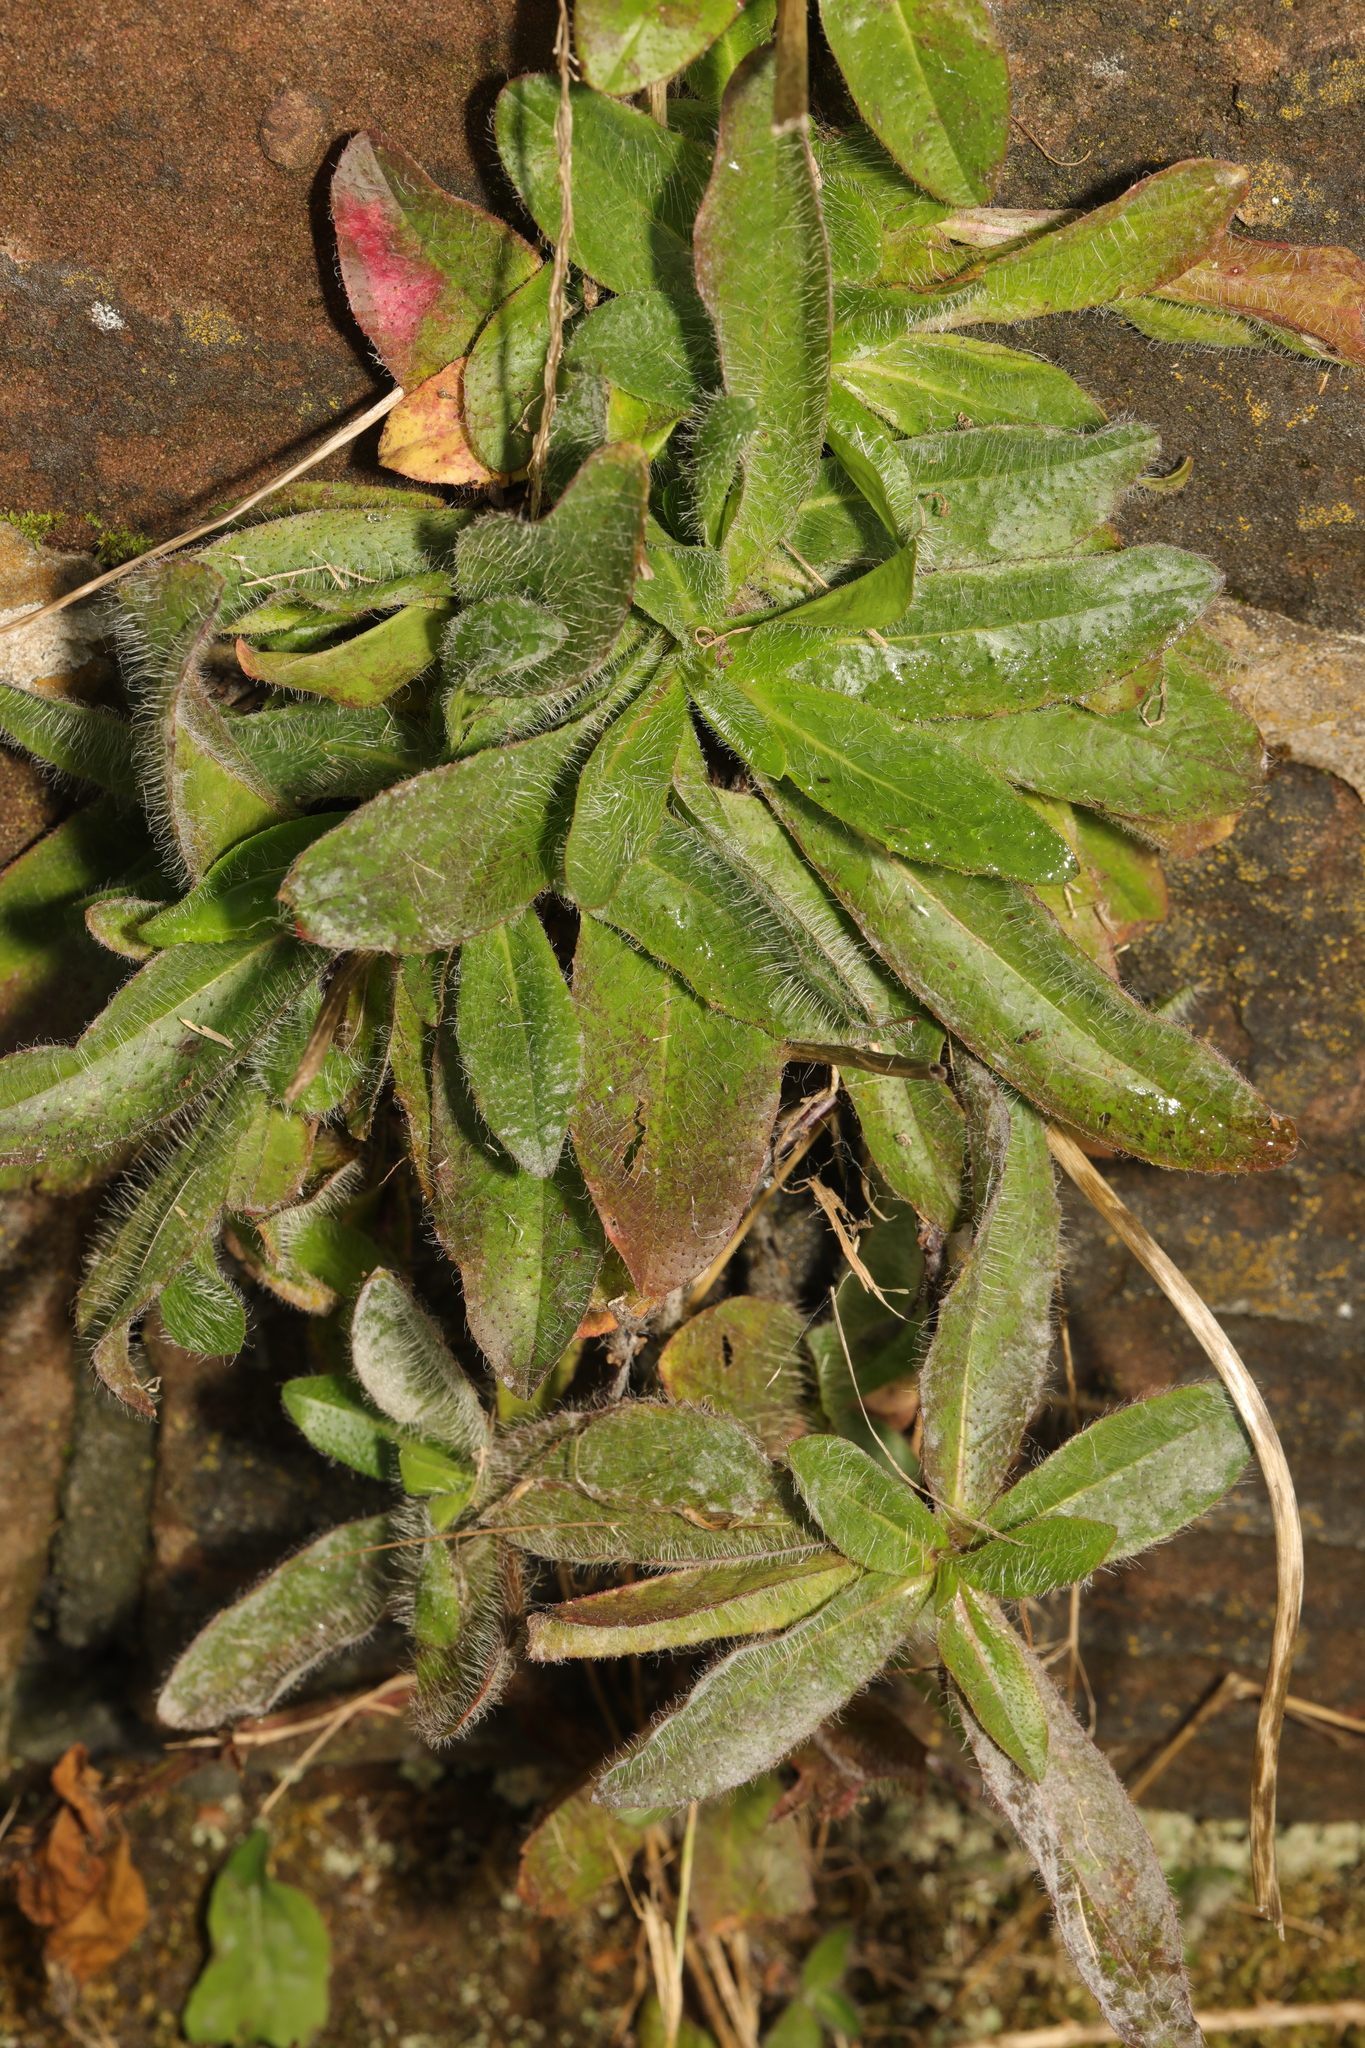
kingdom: Plantae
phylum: Tracheophyta
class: Magnoliopsida
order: Asterales
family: Asteraceae
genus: Pilosella
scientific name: Pilosella officinarum
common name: Mouse-ear hawkweed
